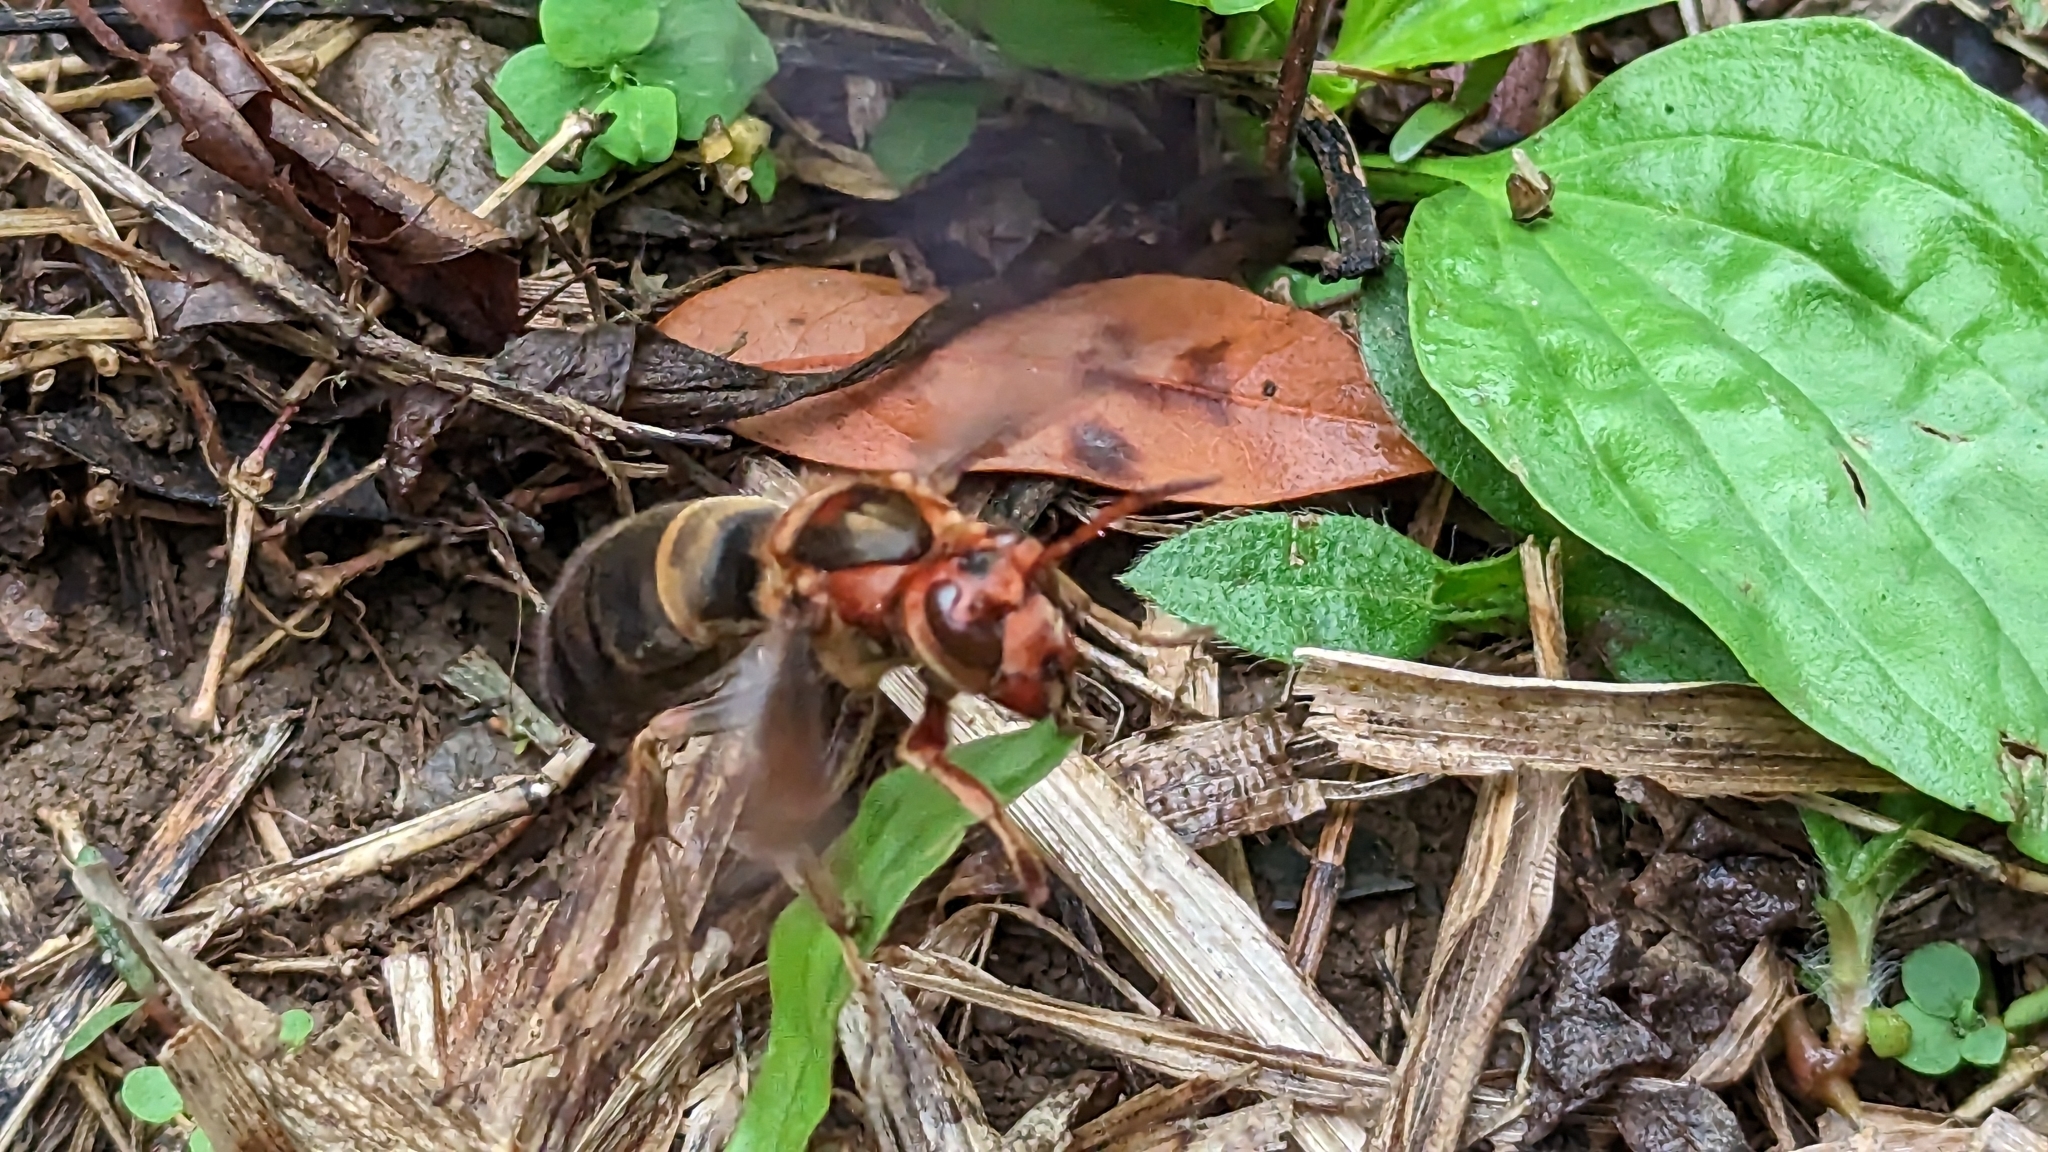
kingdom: Animalia
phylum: Arthropoda
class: Insecta
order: Hymenoptera
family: Vespidae
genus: Vespa
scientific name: Vespa basalis
